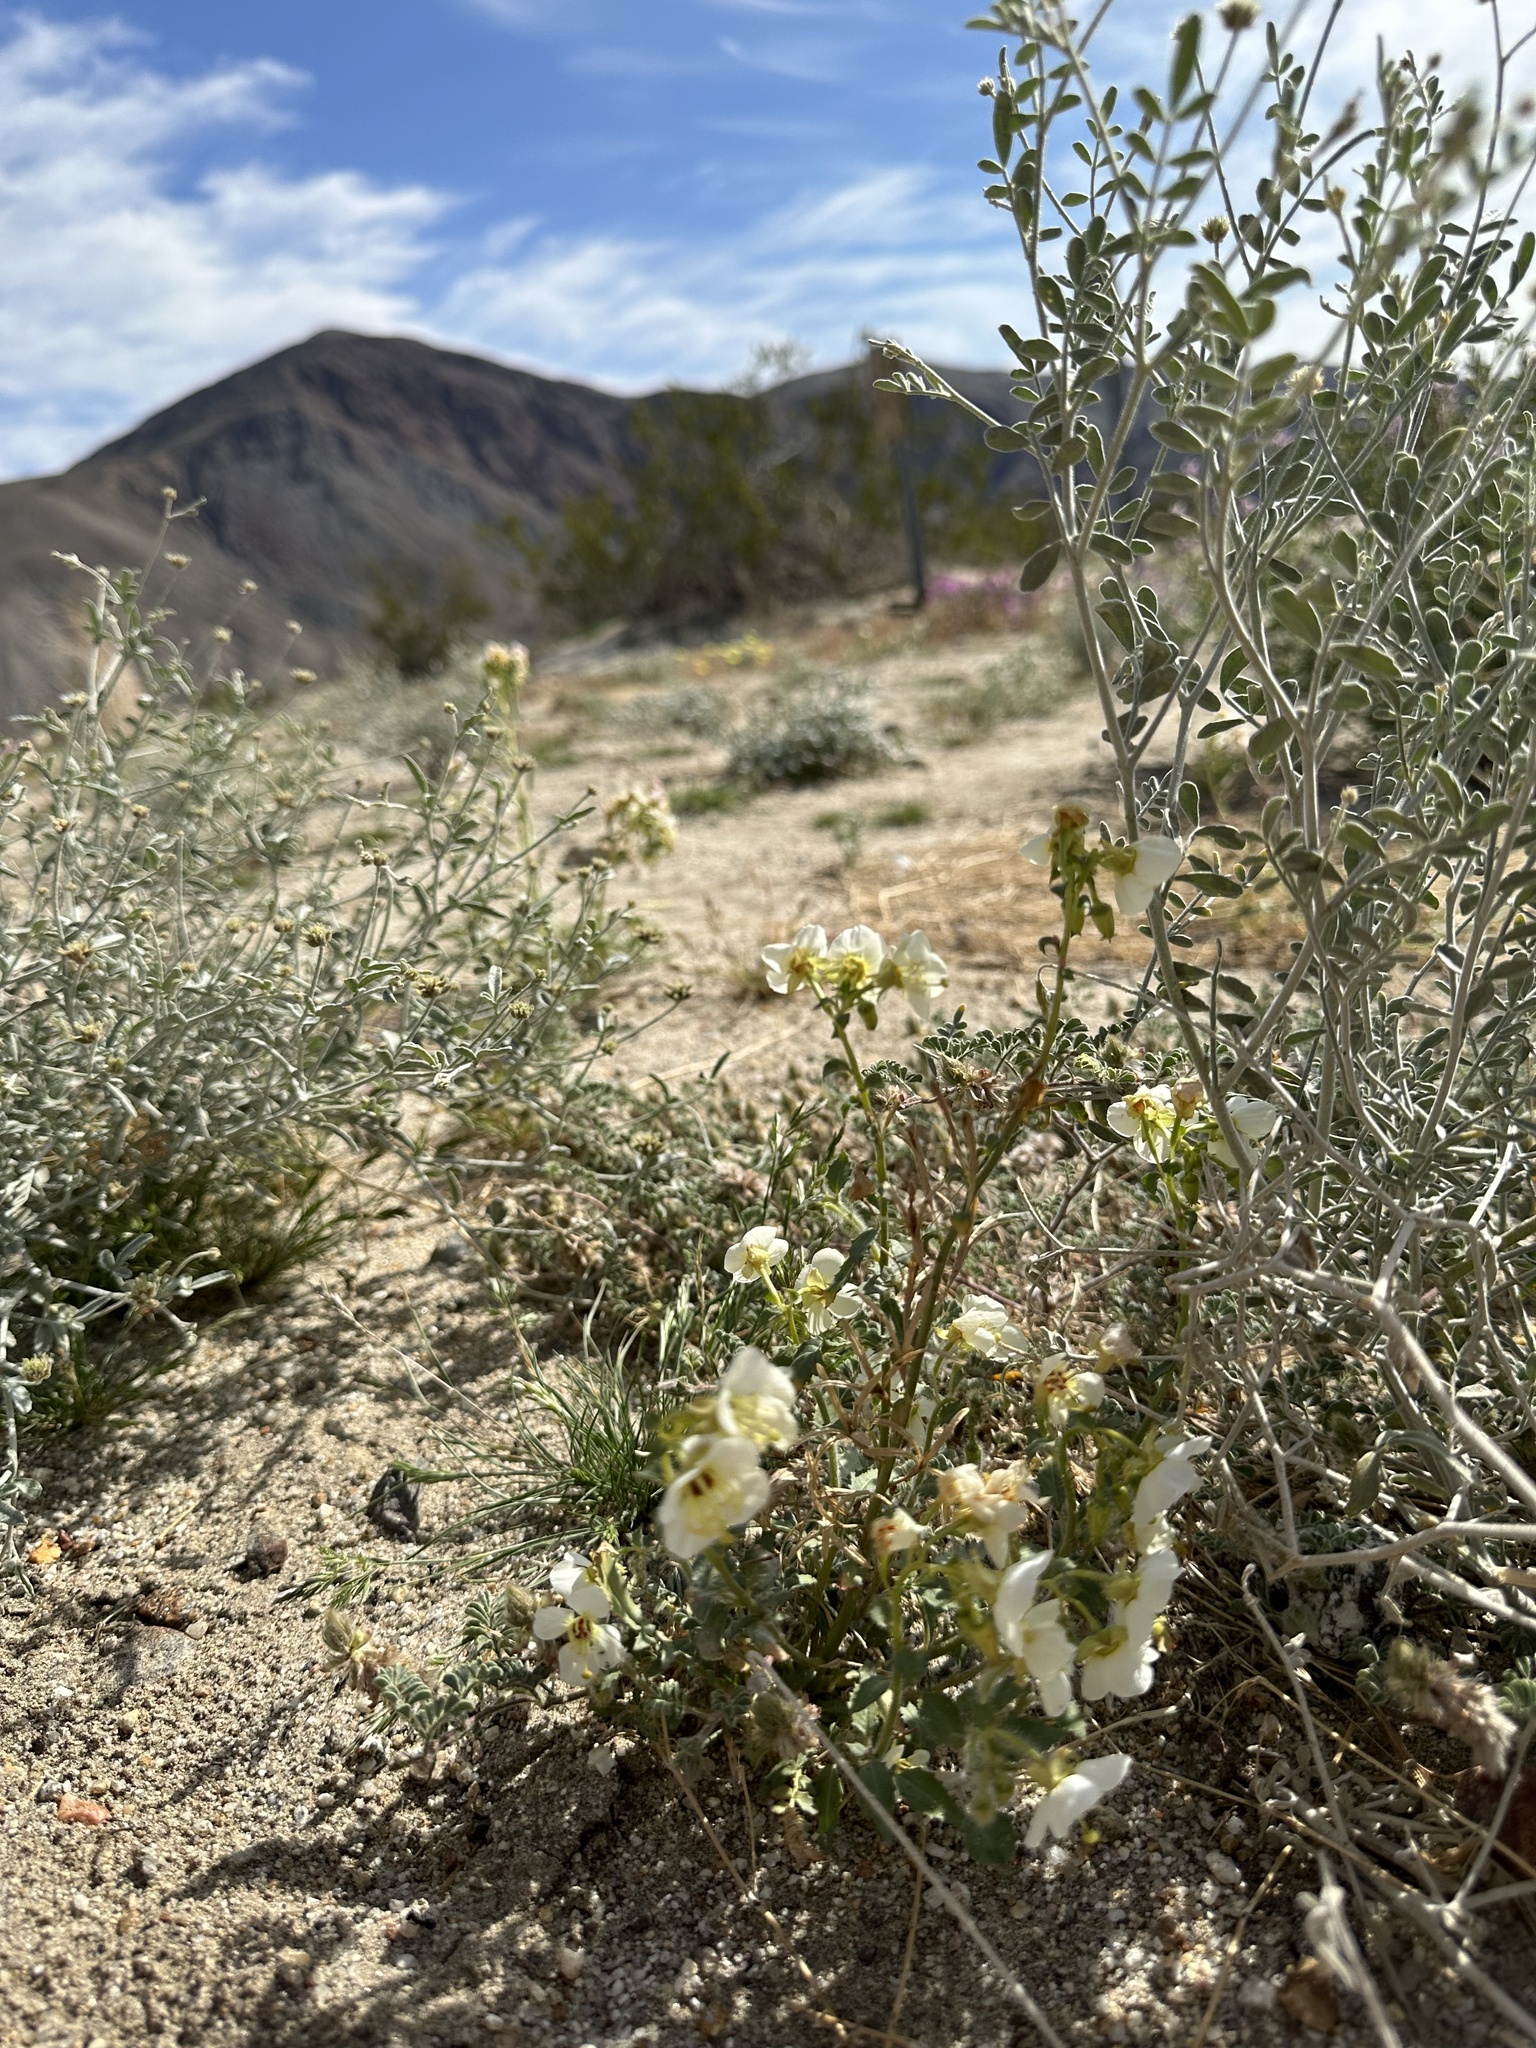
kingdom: Plantae
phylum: Tracheophyta
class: Magnoliopsida
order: Myrtales
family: Onagraceae
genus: Chylismia
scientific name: Chylismia claviformis
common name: Browneyes
